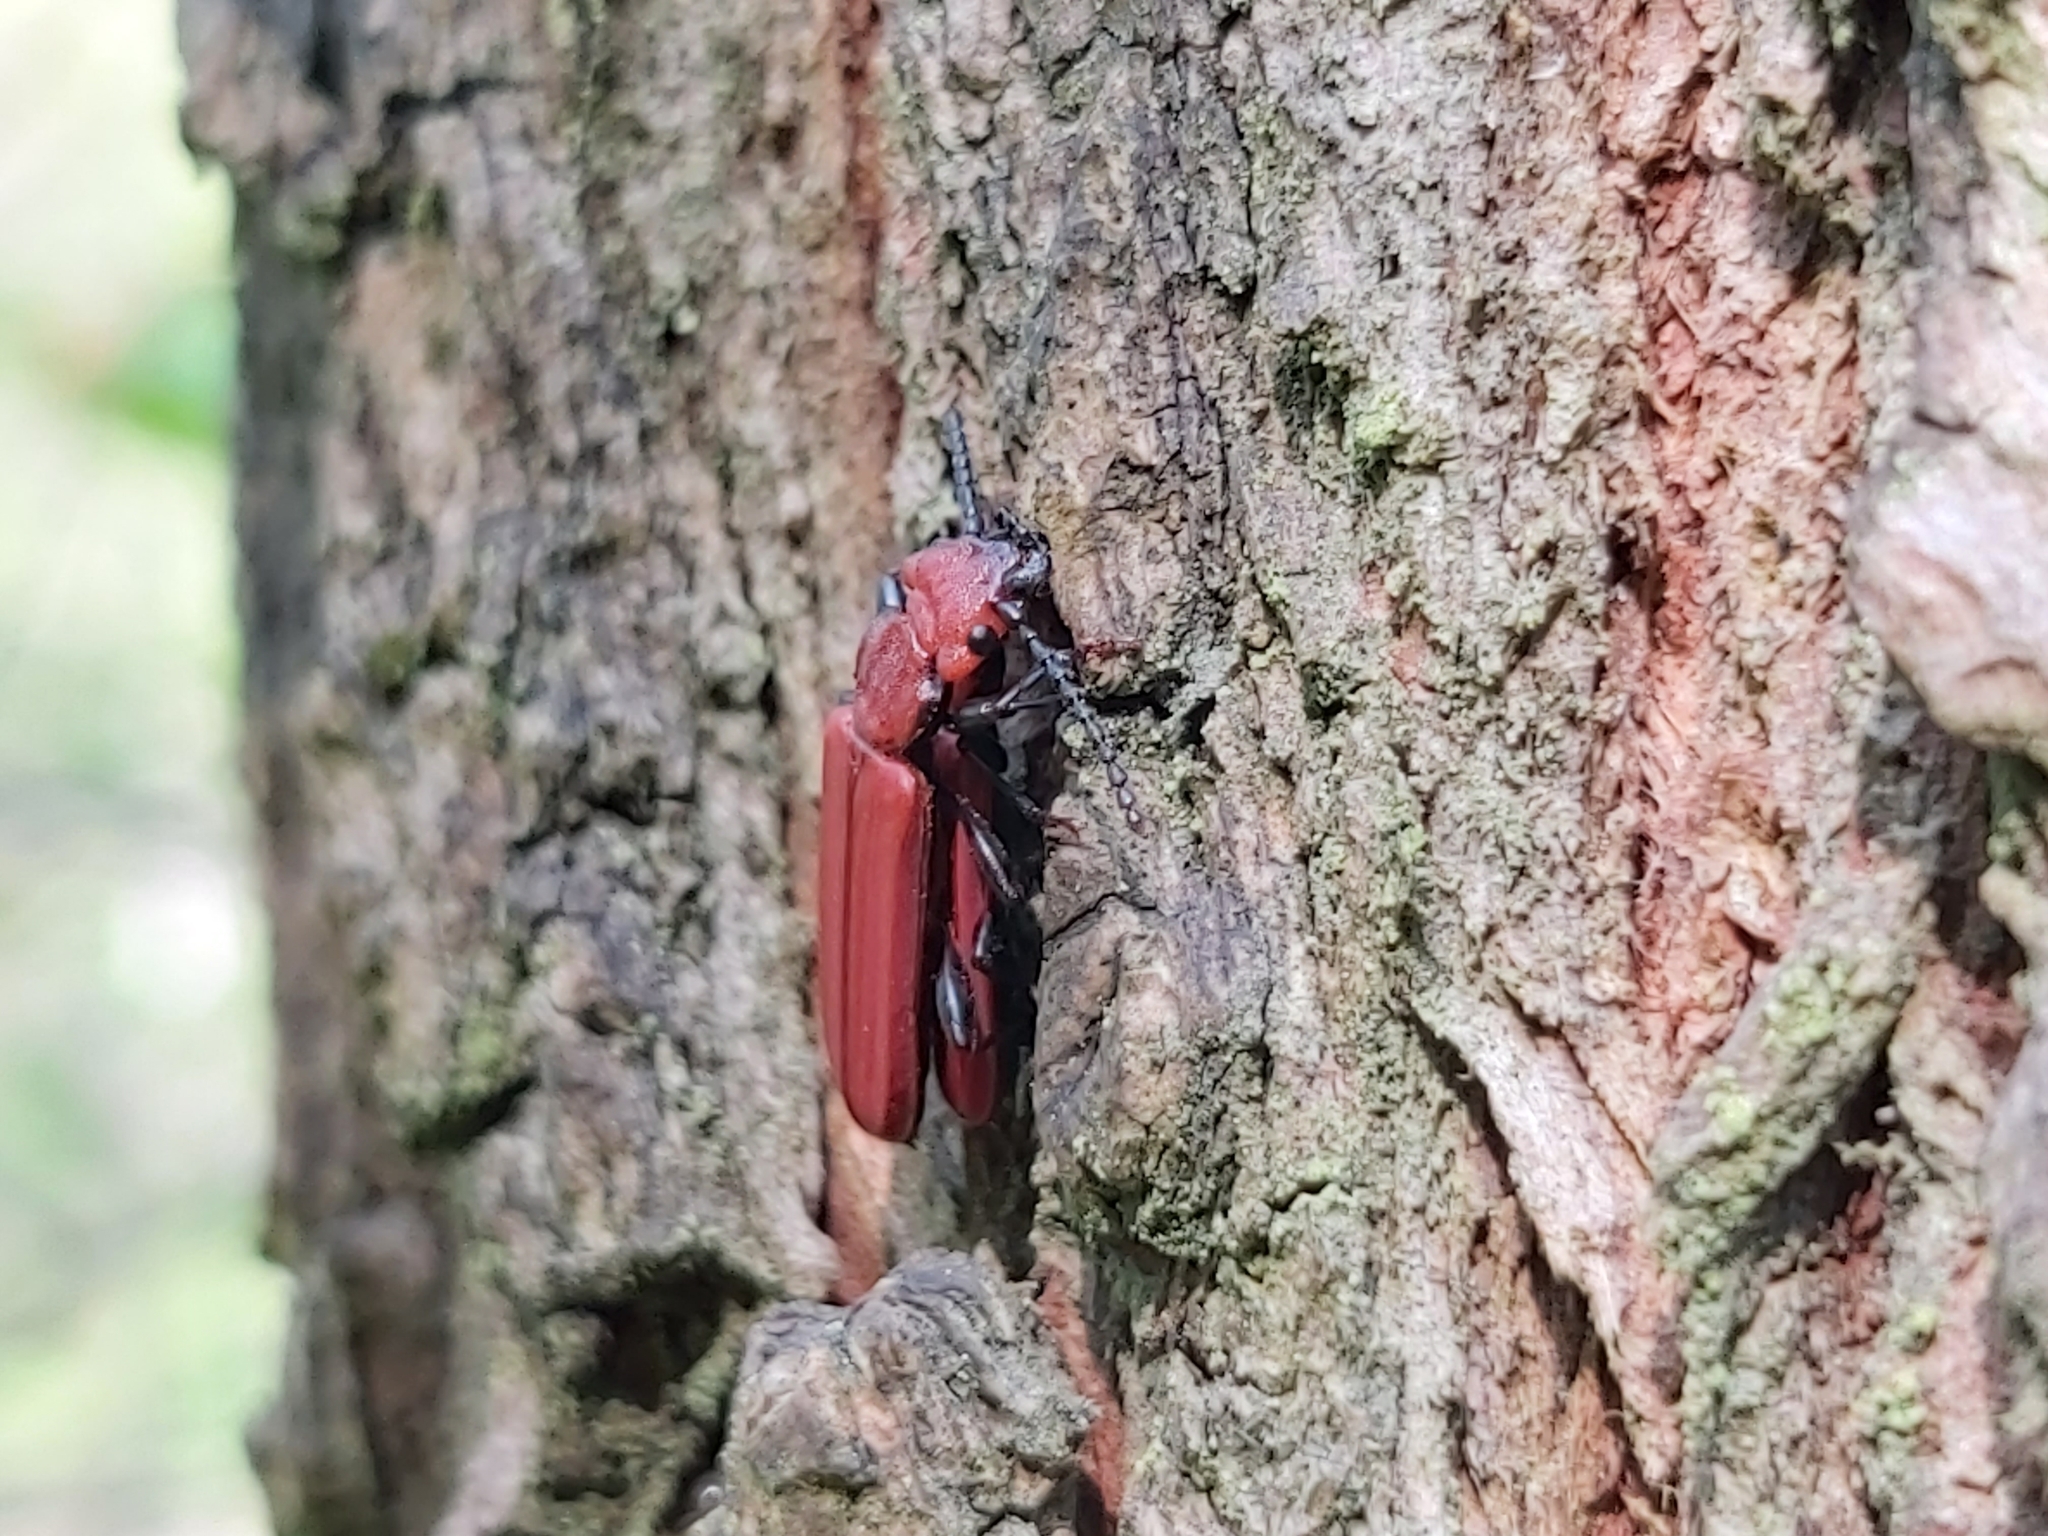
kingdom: Animalia
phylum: Arthropoda
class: Insecta
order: Coleoptera
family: Cucujidae
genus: Cucujus
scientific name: Cucujus cinnaberinus
